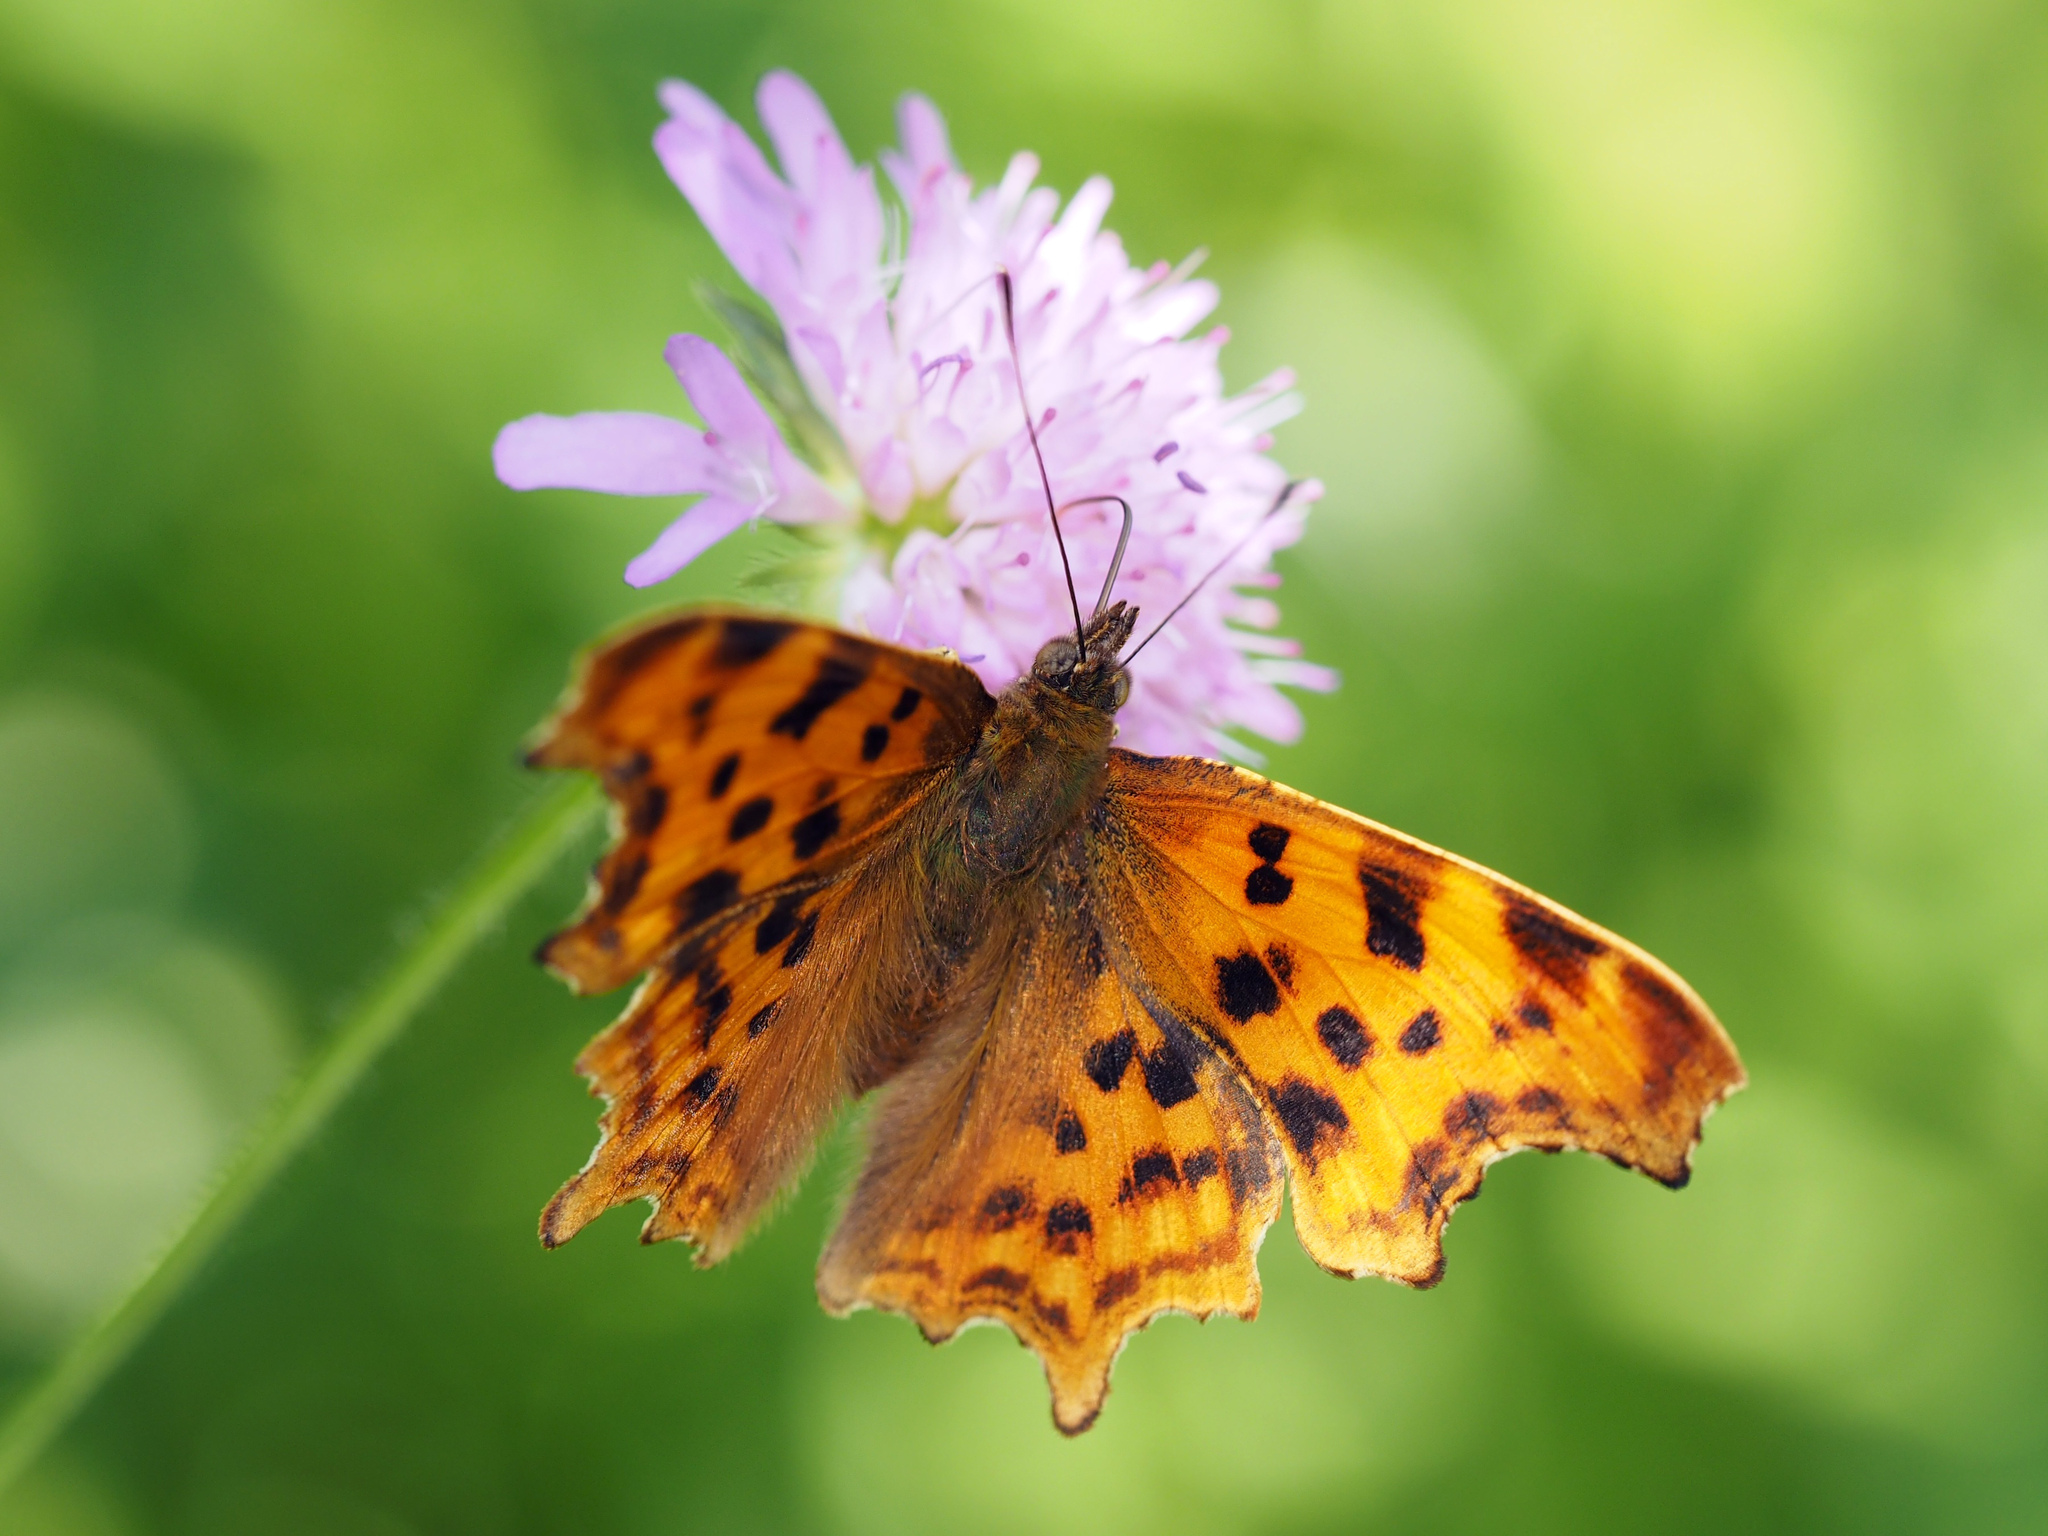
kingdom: Animalia
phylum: Arthropoda
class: Insecta
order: Lepidoptera
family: Nymphalidae
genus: Polygonia
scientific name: Polygonia c-album
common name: Comma
